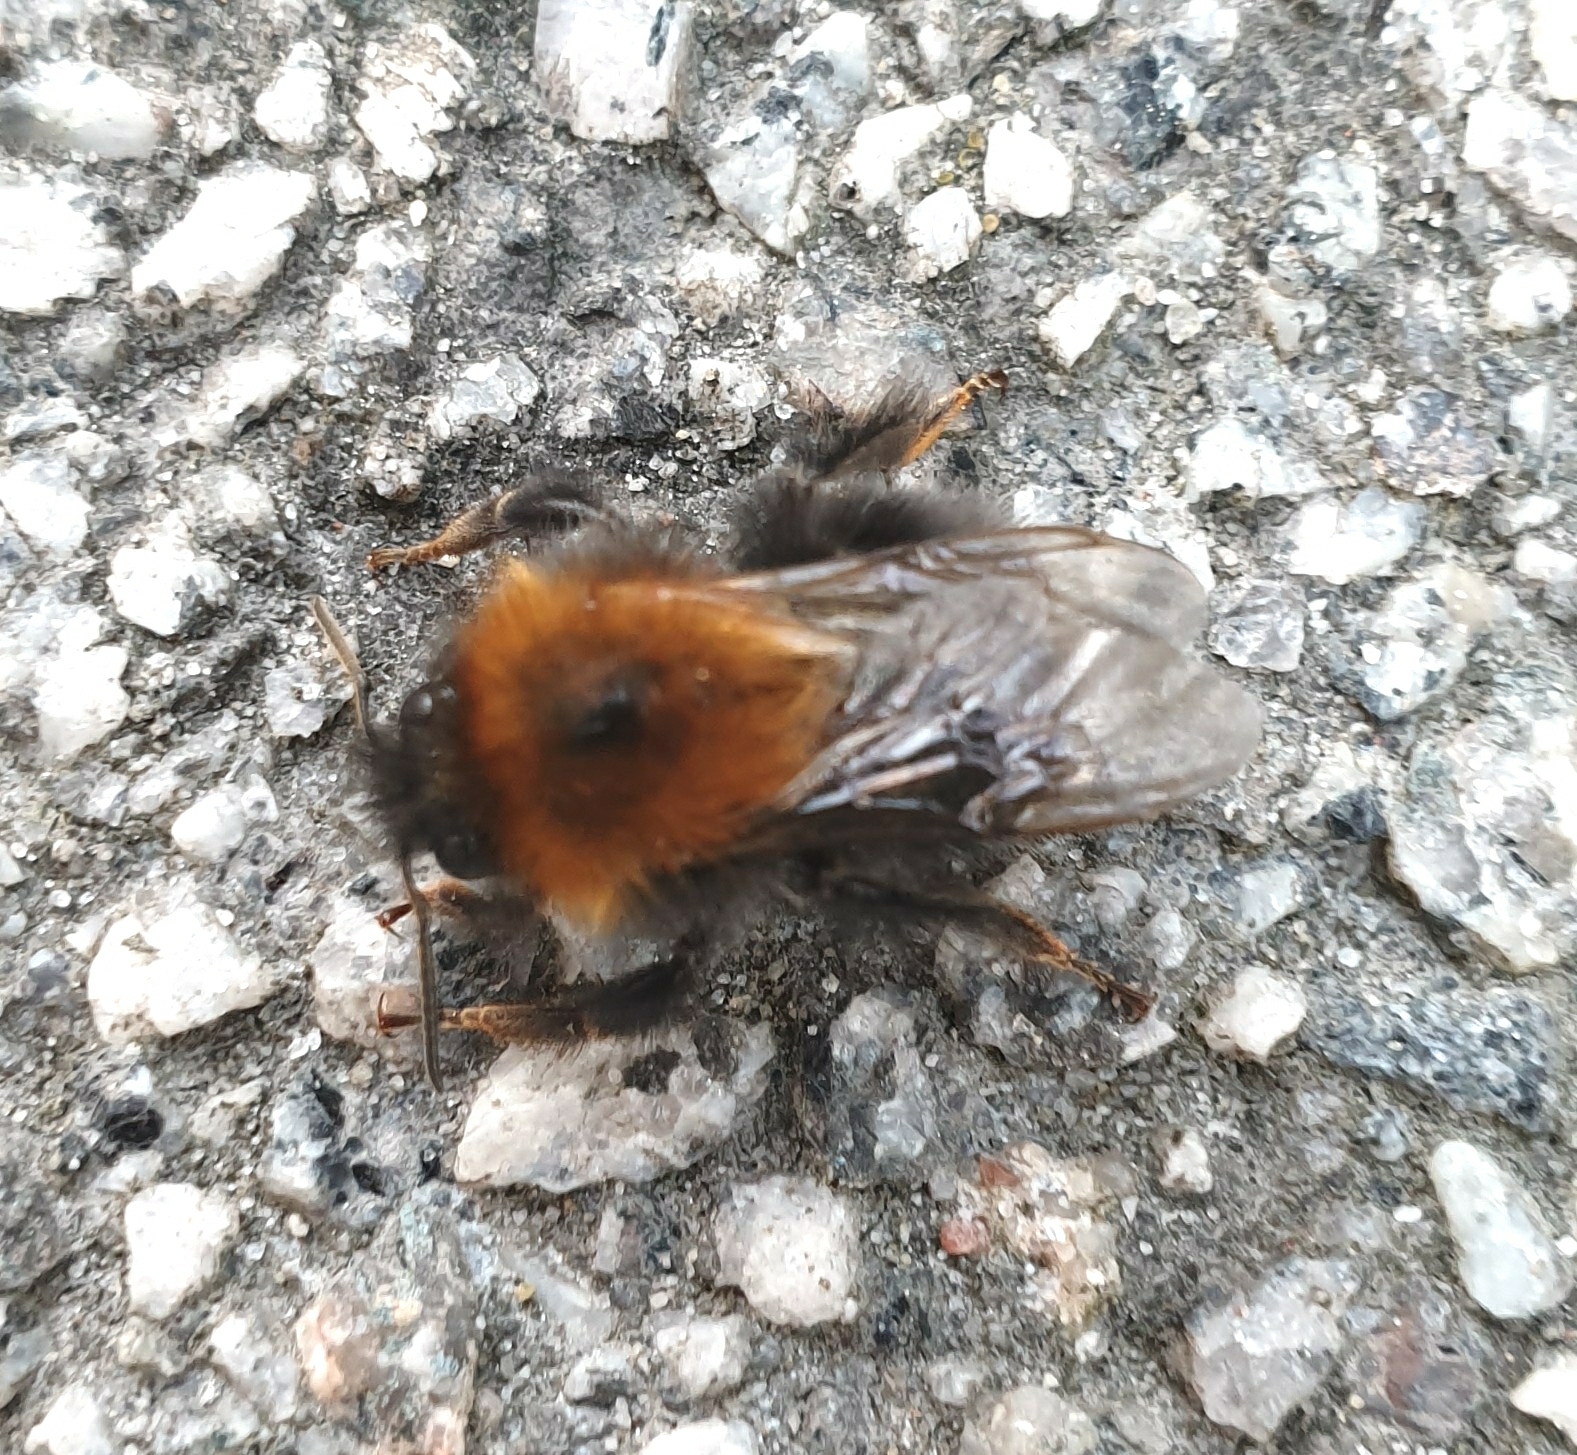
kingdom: Animalia
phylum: Arthropoda
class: Insecta
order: Hymenoptera
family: Apidae
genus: Bombus
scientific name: Bombus hypnorum
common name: New garden bumblebee
